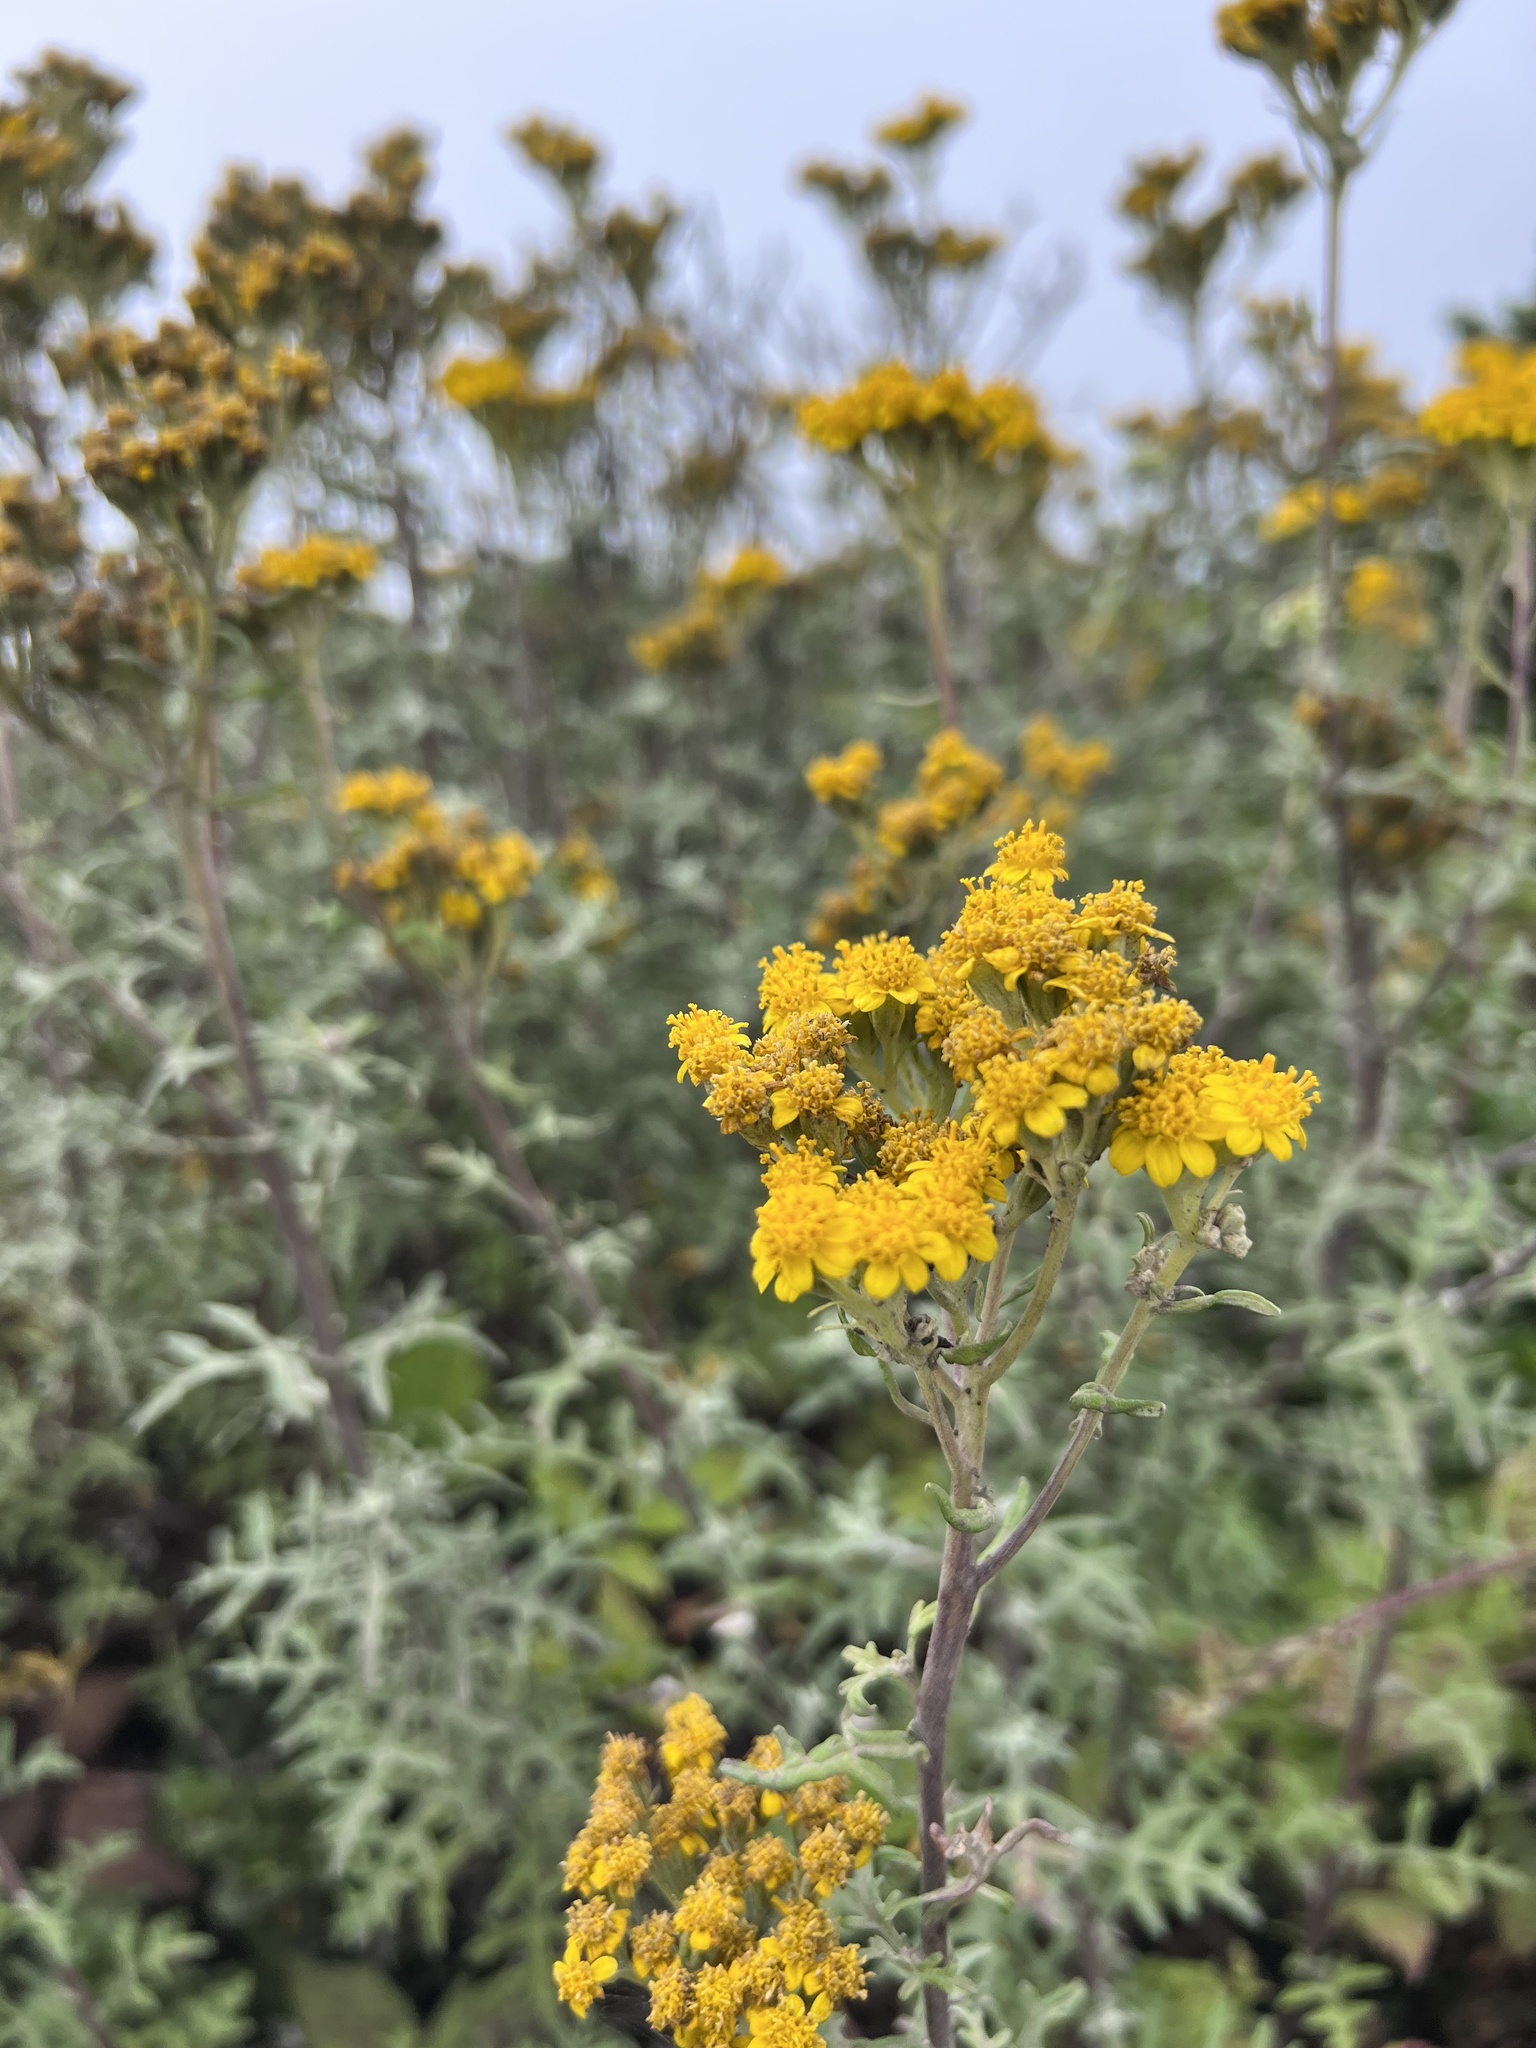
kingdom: Plantae
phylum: Tracheophyta
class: Magnoliopsida
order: Asterales
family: Asteraceae
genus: Eriophyllum
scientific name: Eriophyllum staechadifolium
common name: Lizardtail
